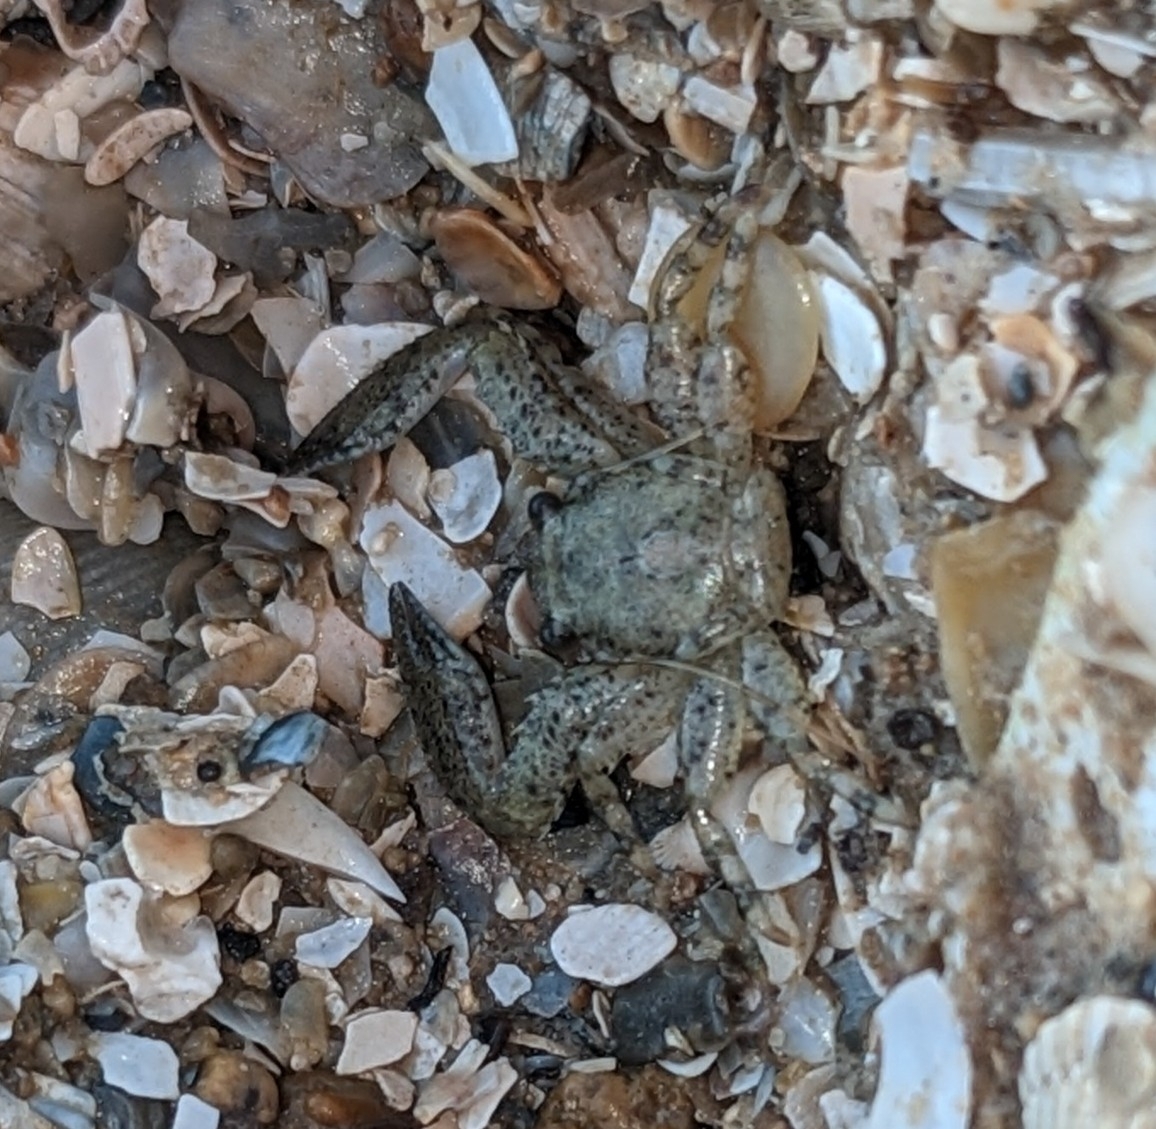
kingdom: Animalia
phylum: Arthropoda
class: Malacostraca
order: Decapoda
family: Porcellanidae
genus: Petrolisthes
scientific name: Petrolisthes armatus
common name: Green porcelain crab
